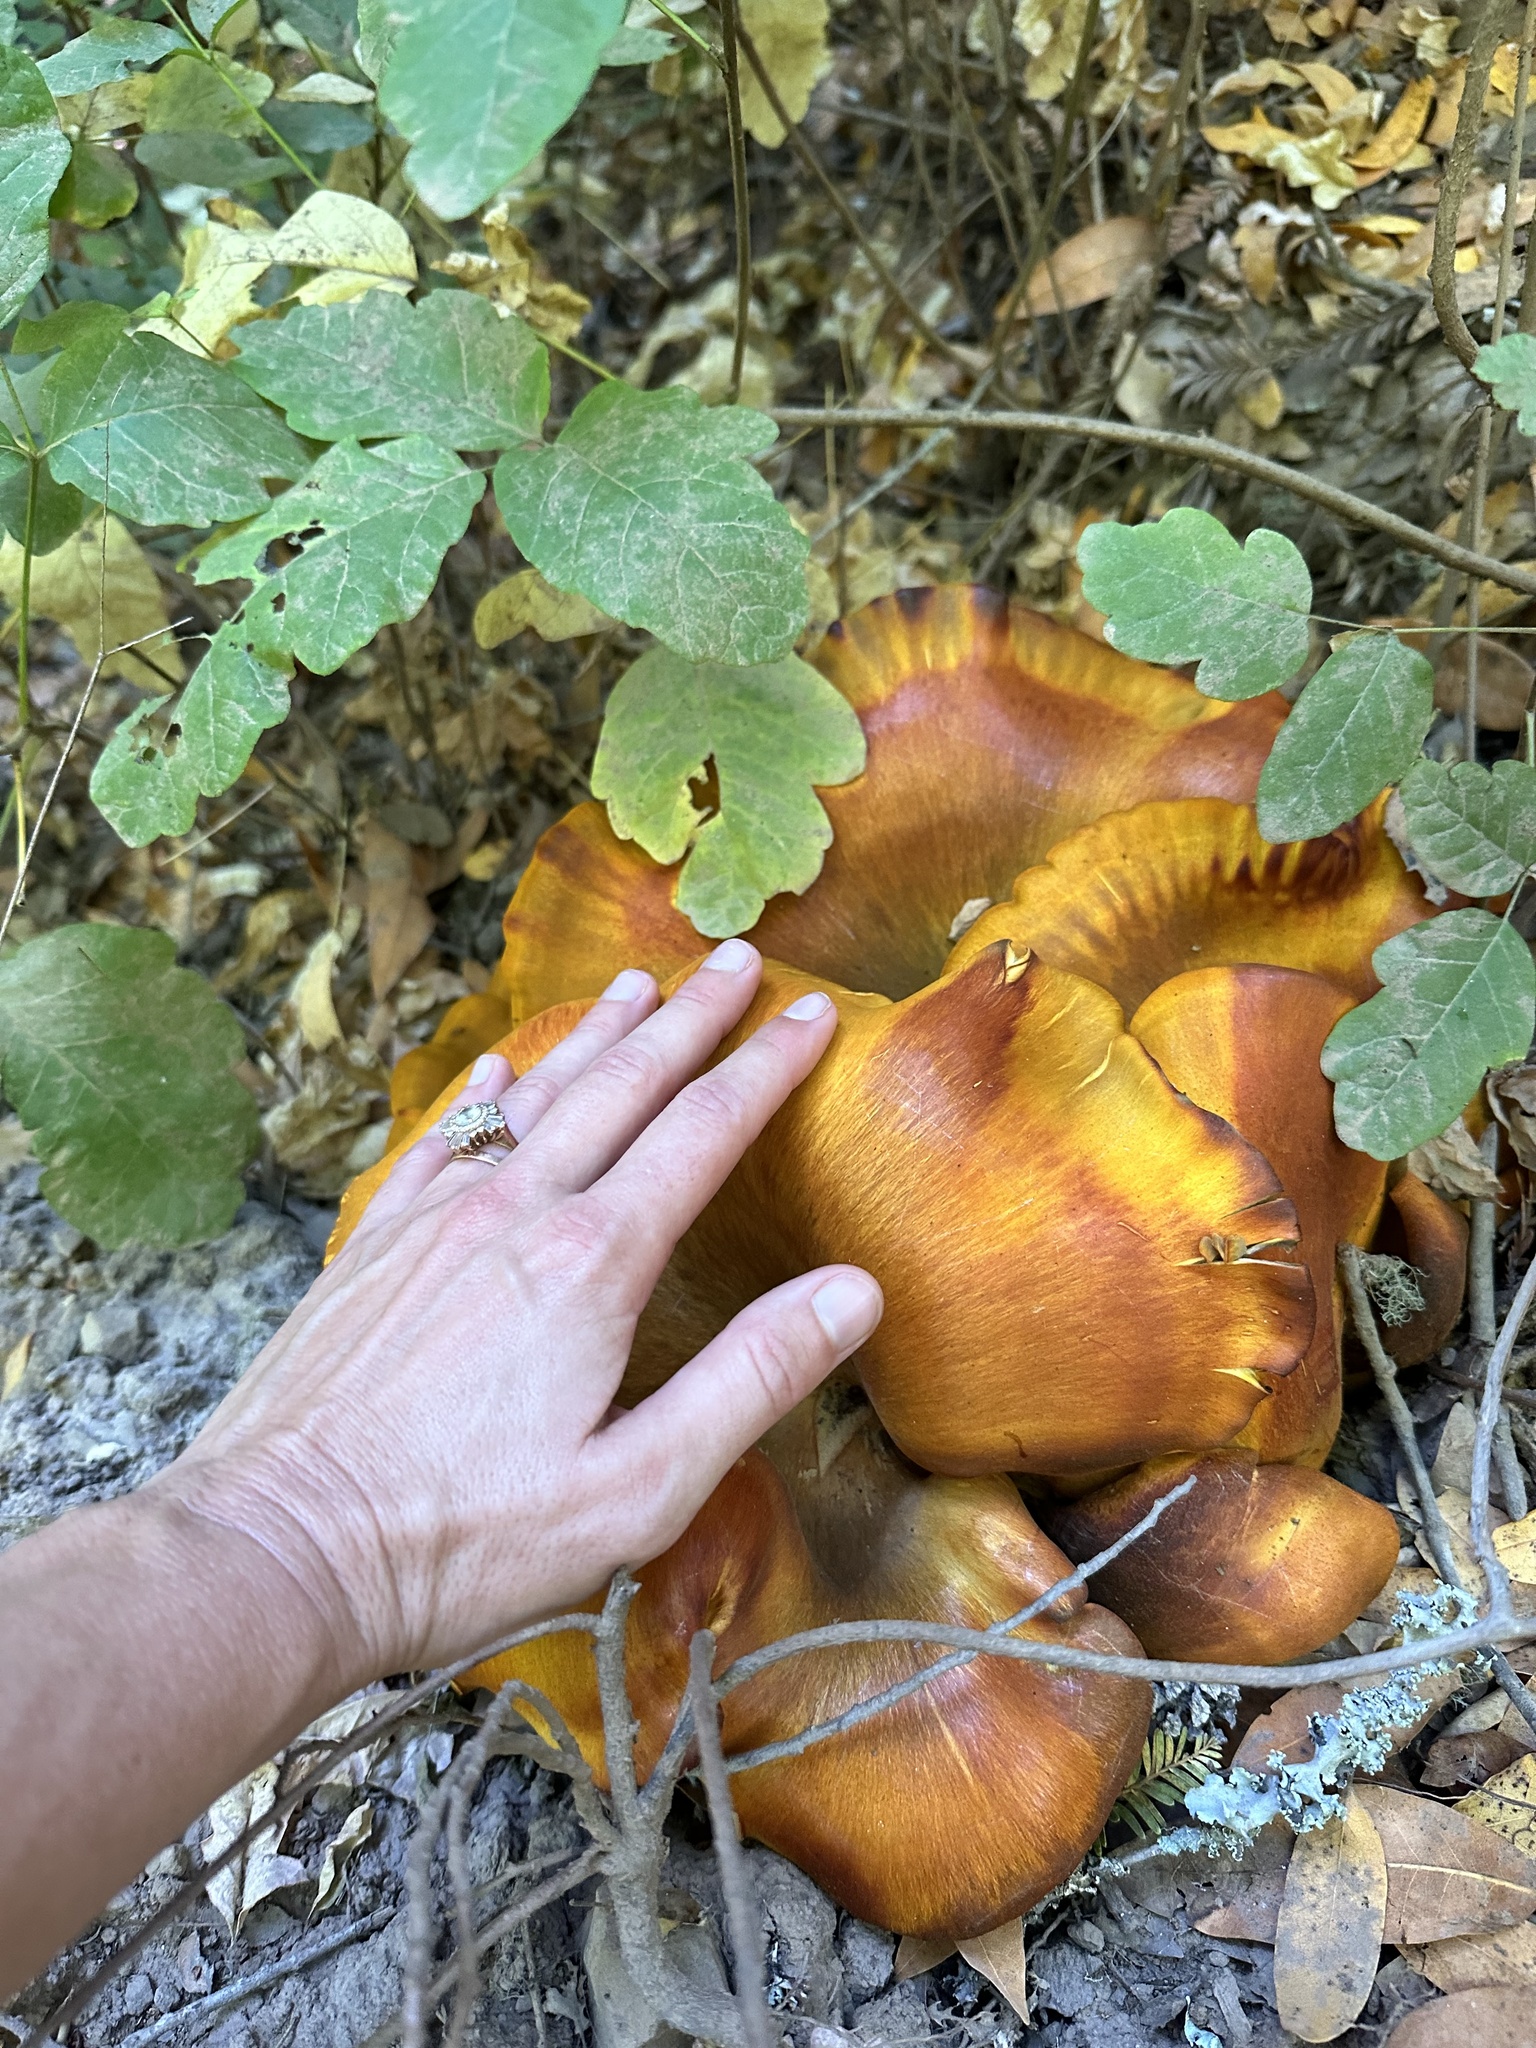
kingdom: Fungi
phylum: Basidiomycota
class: Agaricomycetes
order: Agaricales
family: Omphalotaceae
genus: Omphalotus
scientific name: Omphalotus olivascens
